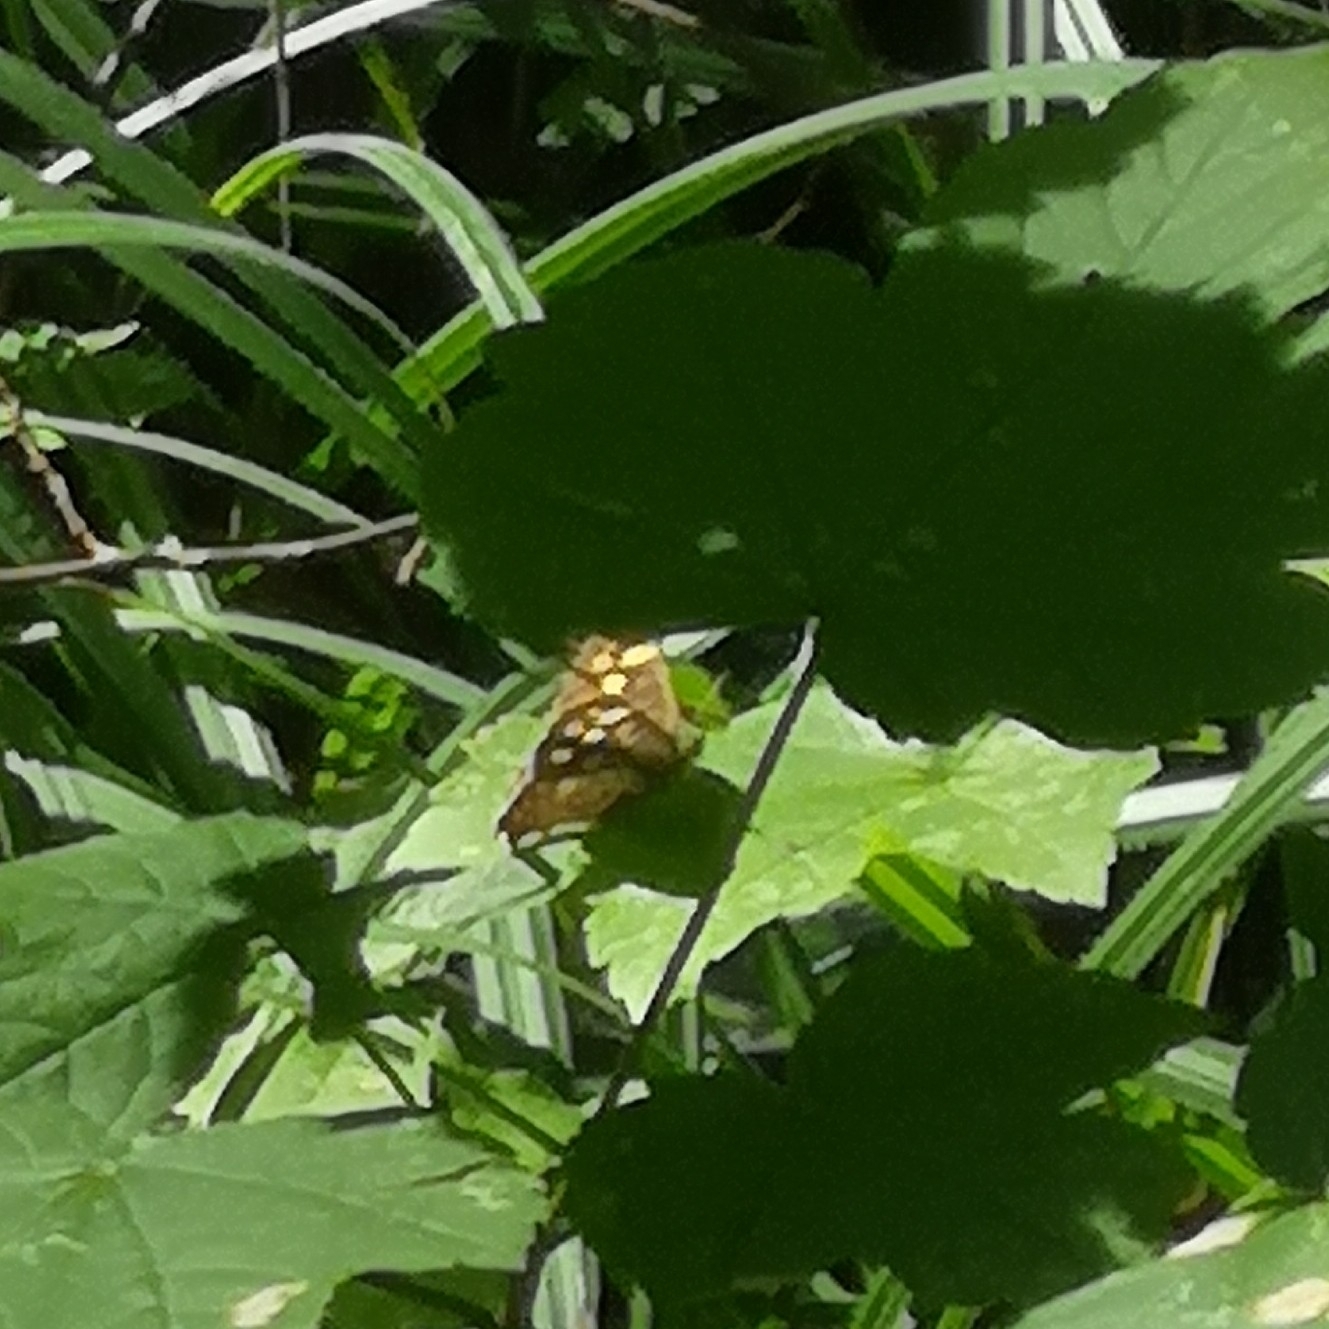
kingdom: Animalia
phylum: Arthropoda
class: Insecta
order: Lepidoptera
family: Nymphalidae
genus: Pararge
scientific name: Pararge aegeria
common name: Speckled wood
